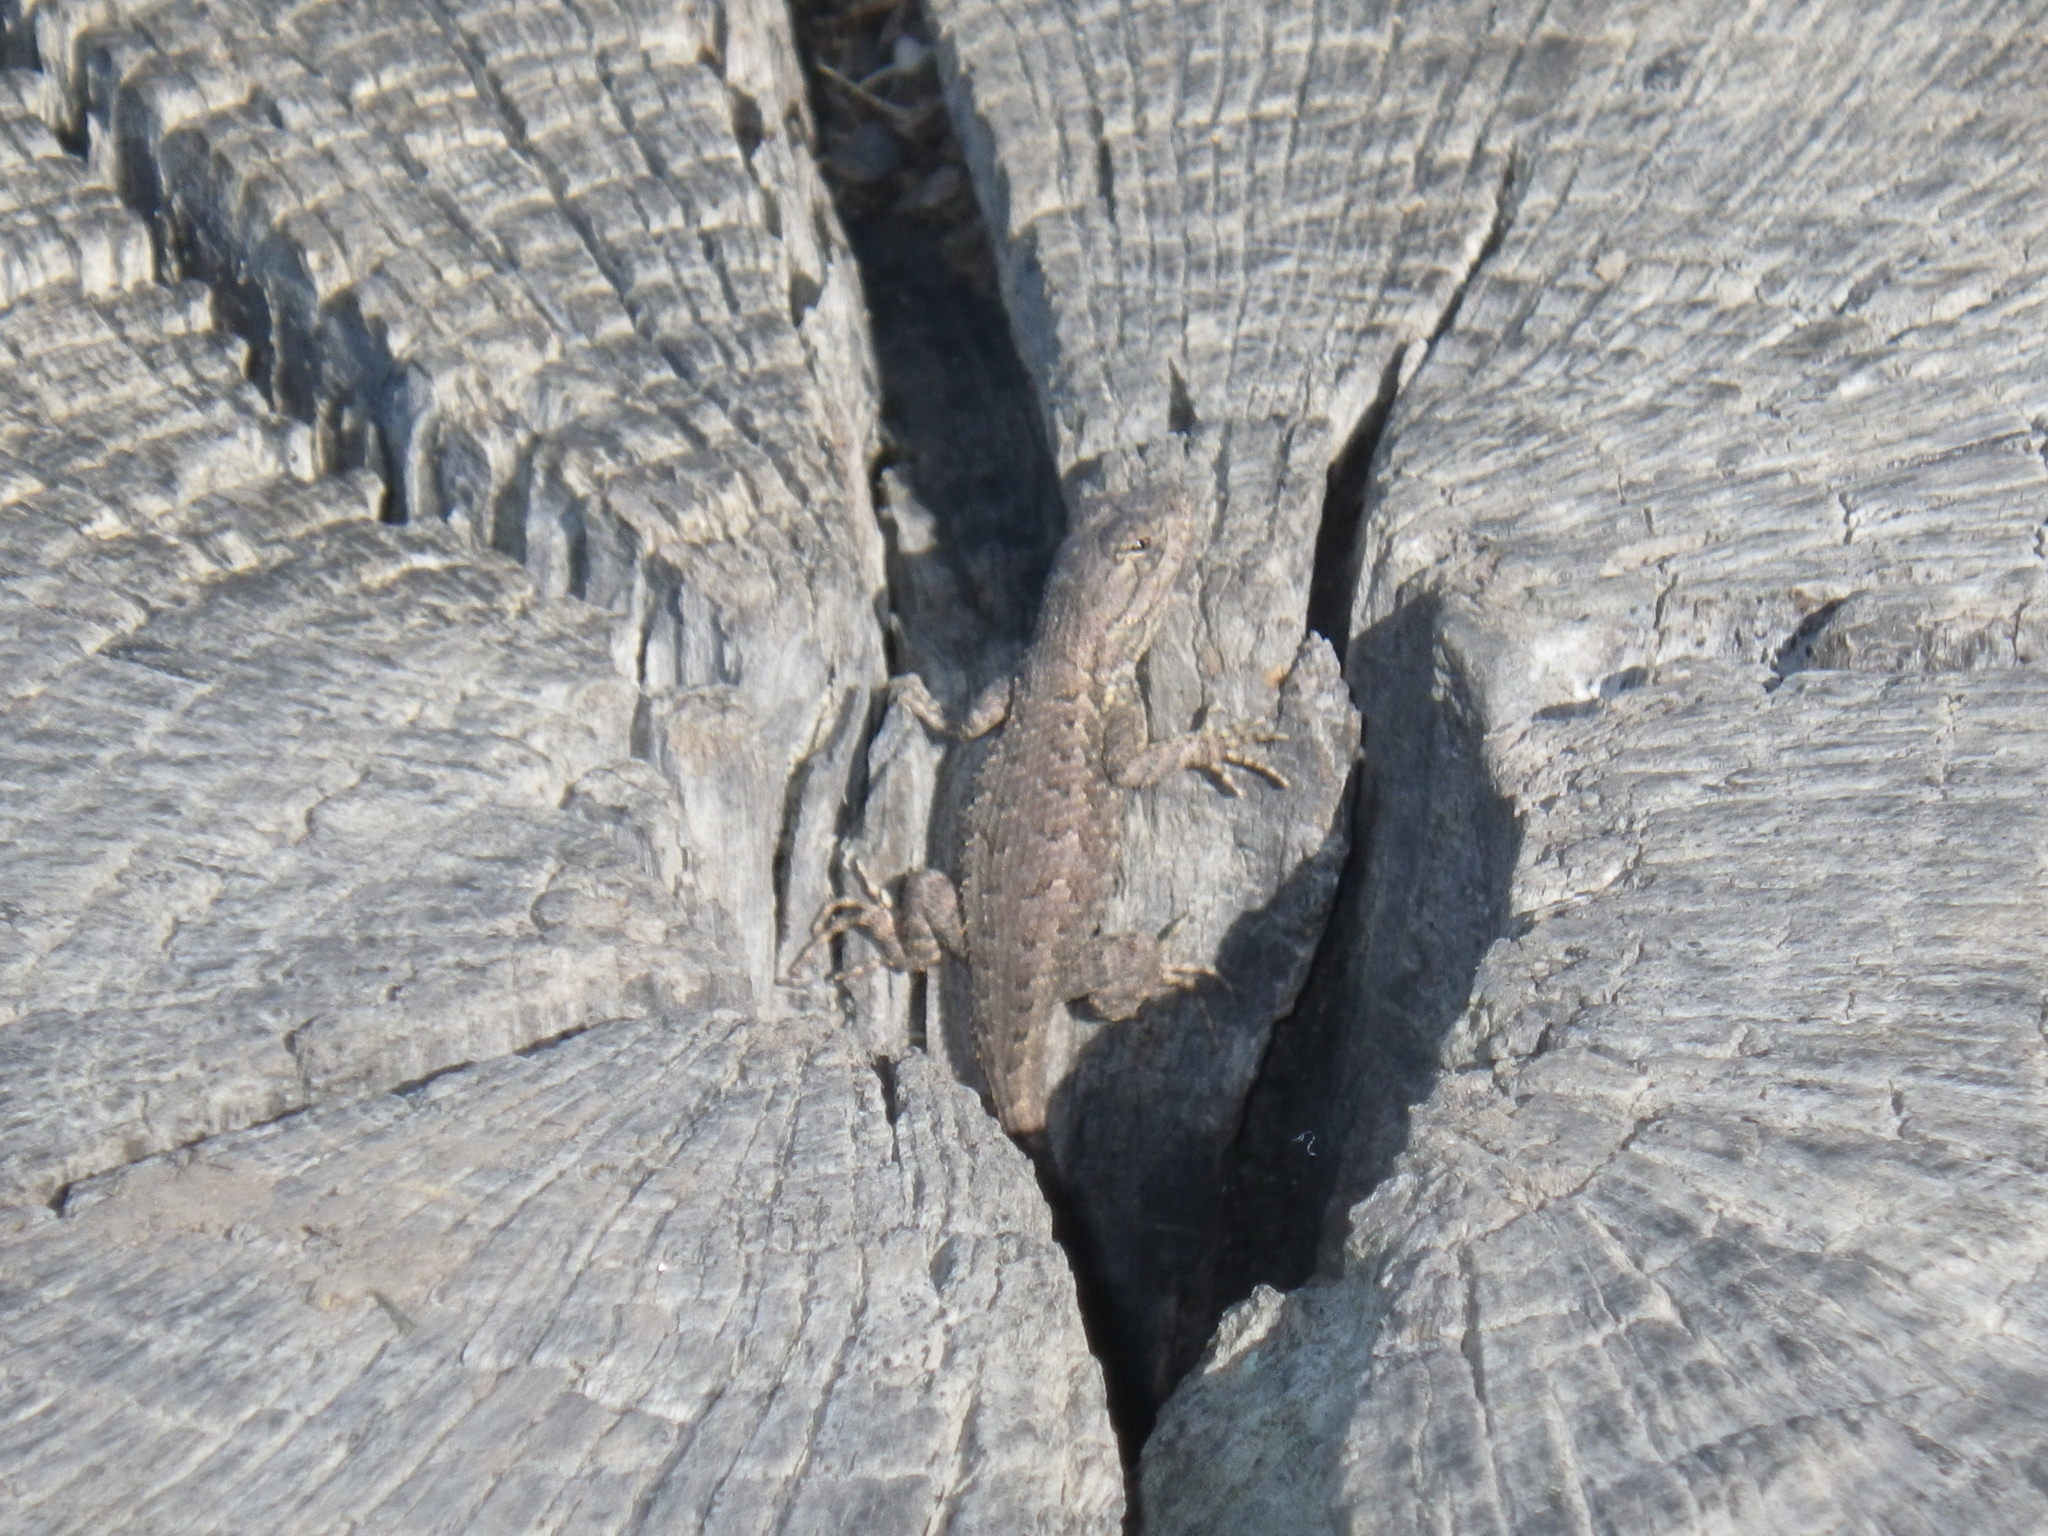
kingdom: Animalia
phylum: Chordata
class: Squamata
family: Phrynosomatidae
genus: Sceloporus
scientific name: Sceloporus occidentalis
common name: Western fence lizard
